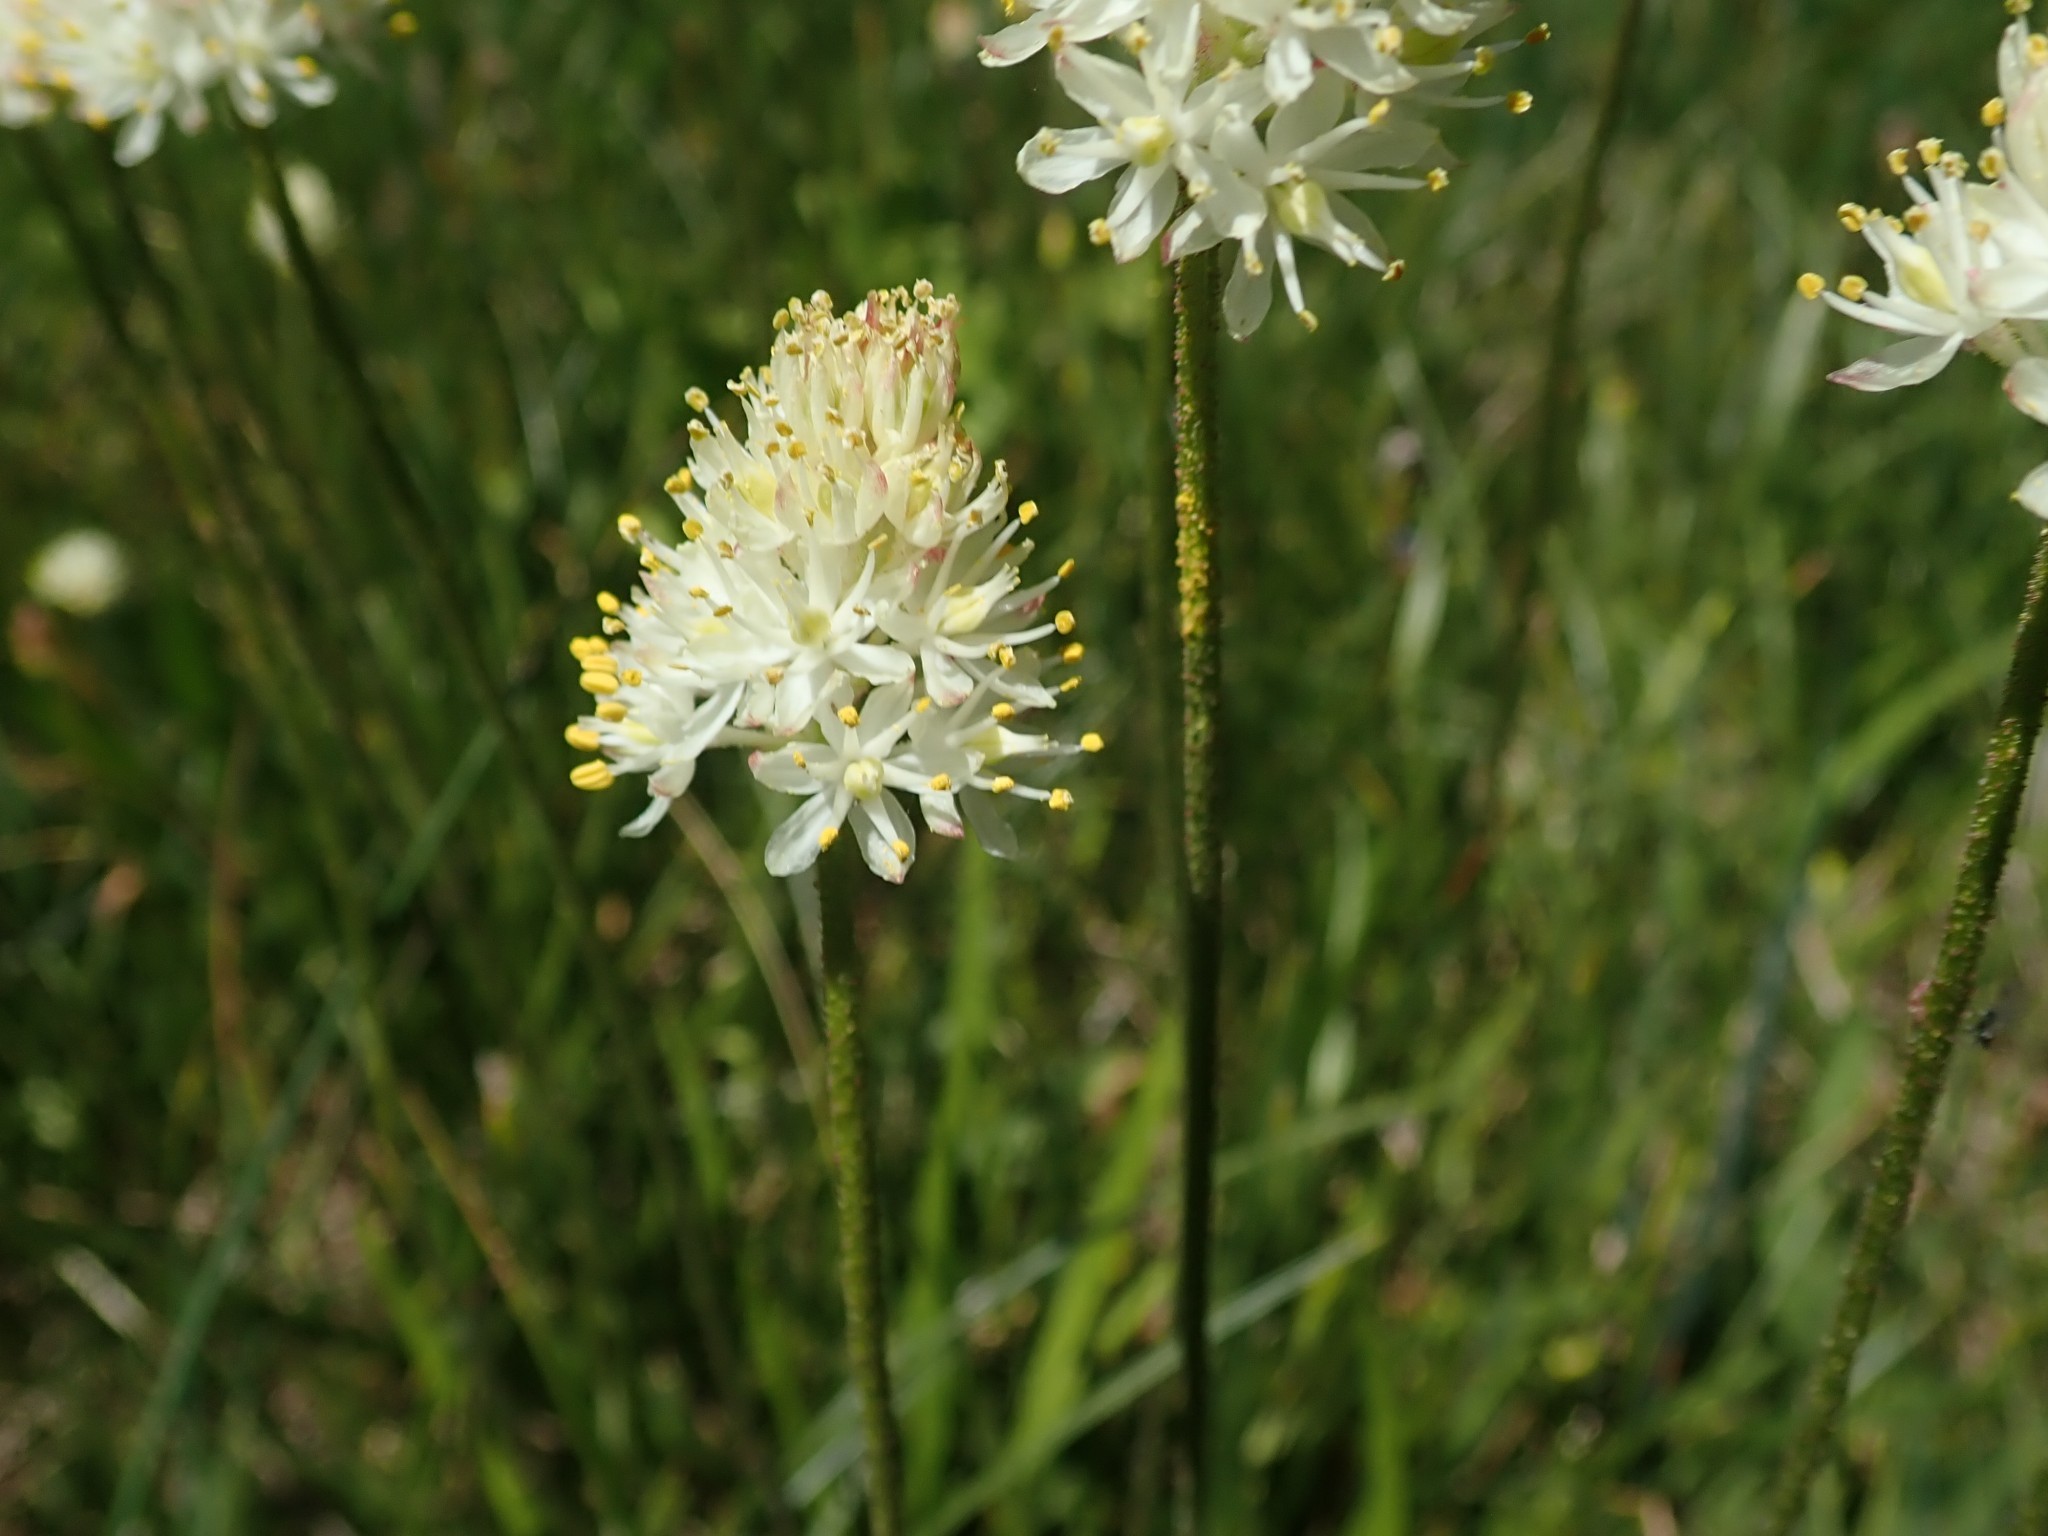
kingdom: Plantae
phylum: Tracheophyta
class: Liliopsida
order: Alismatales
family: Tofieldiaceae
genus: Triantha
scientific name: Triantha occidentalis
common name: Western false asphodel
